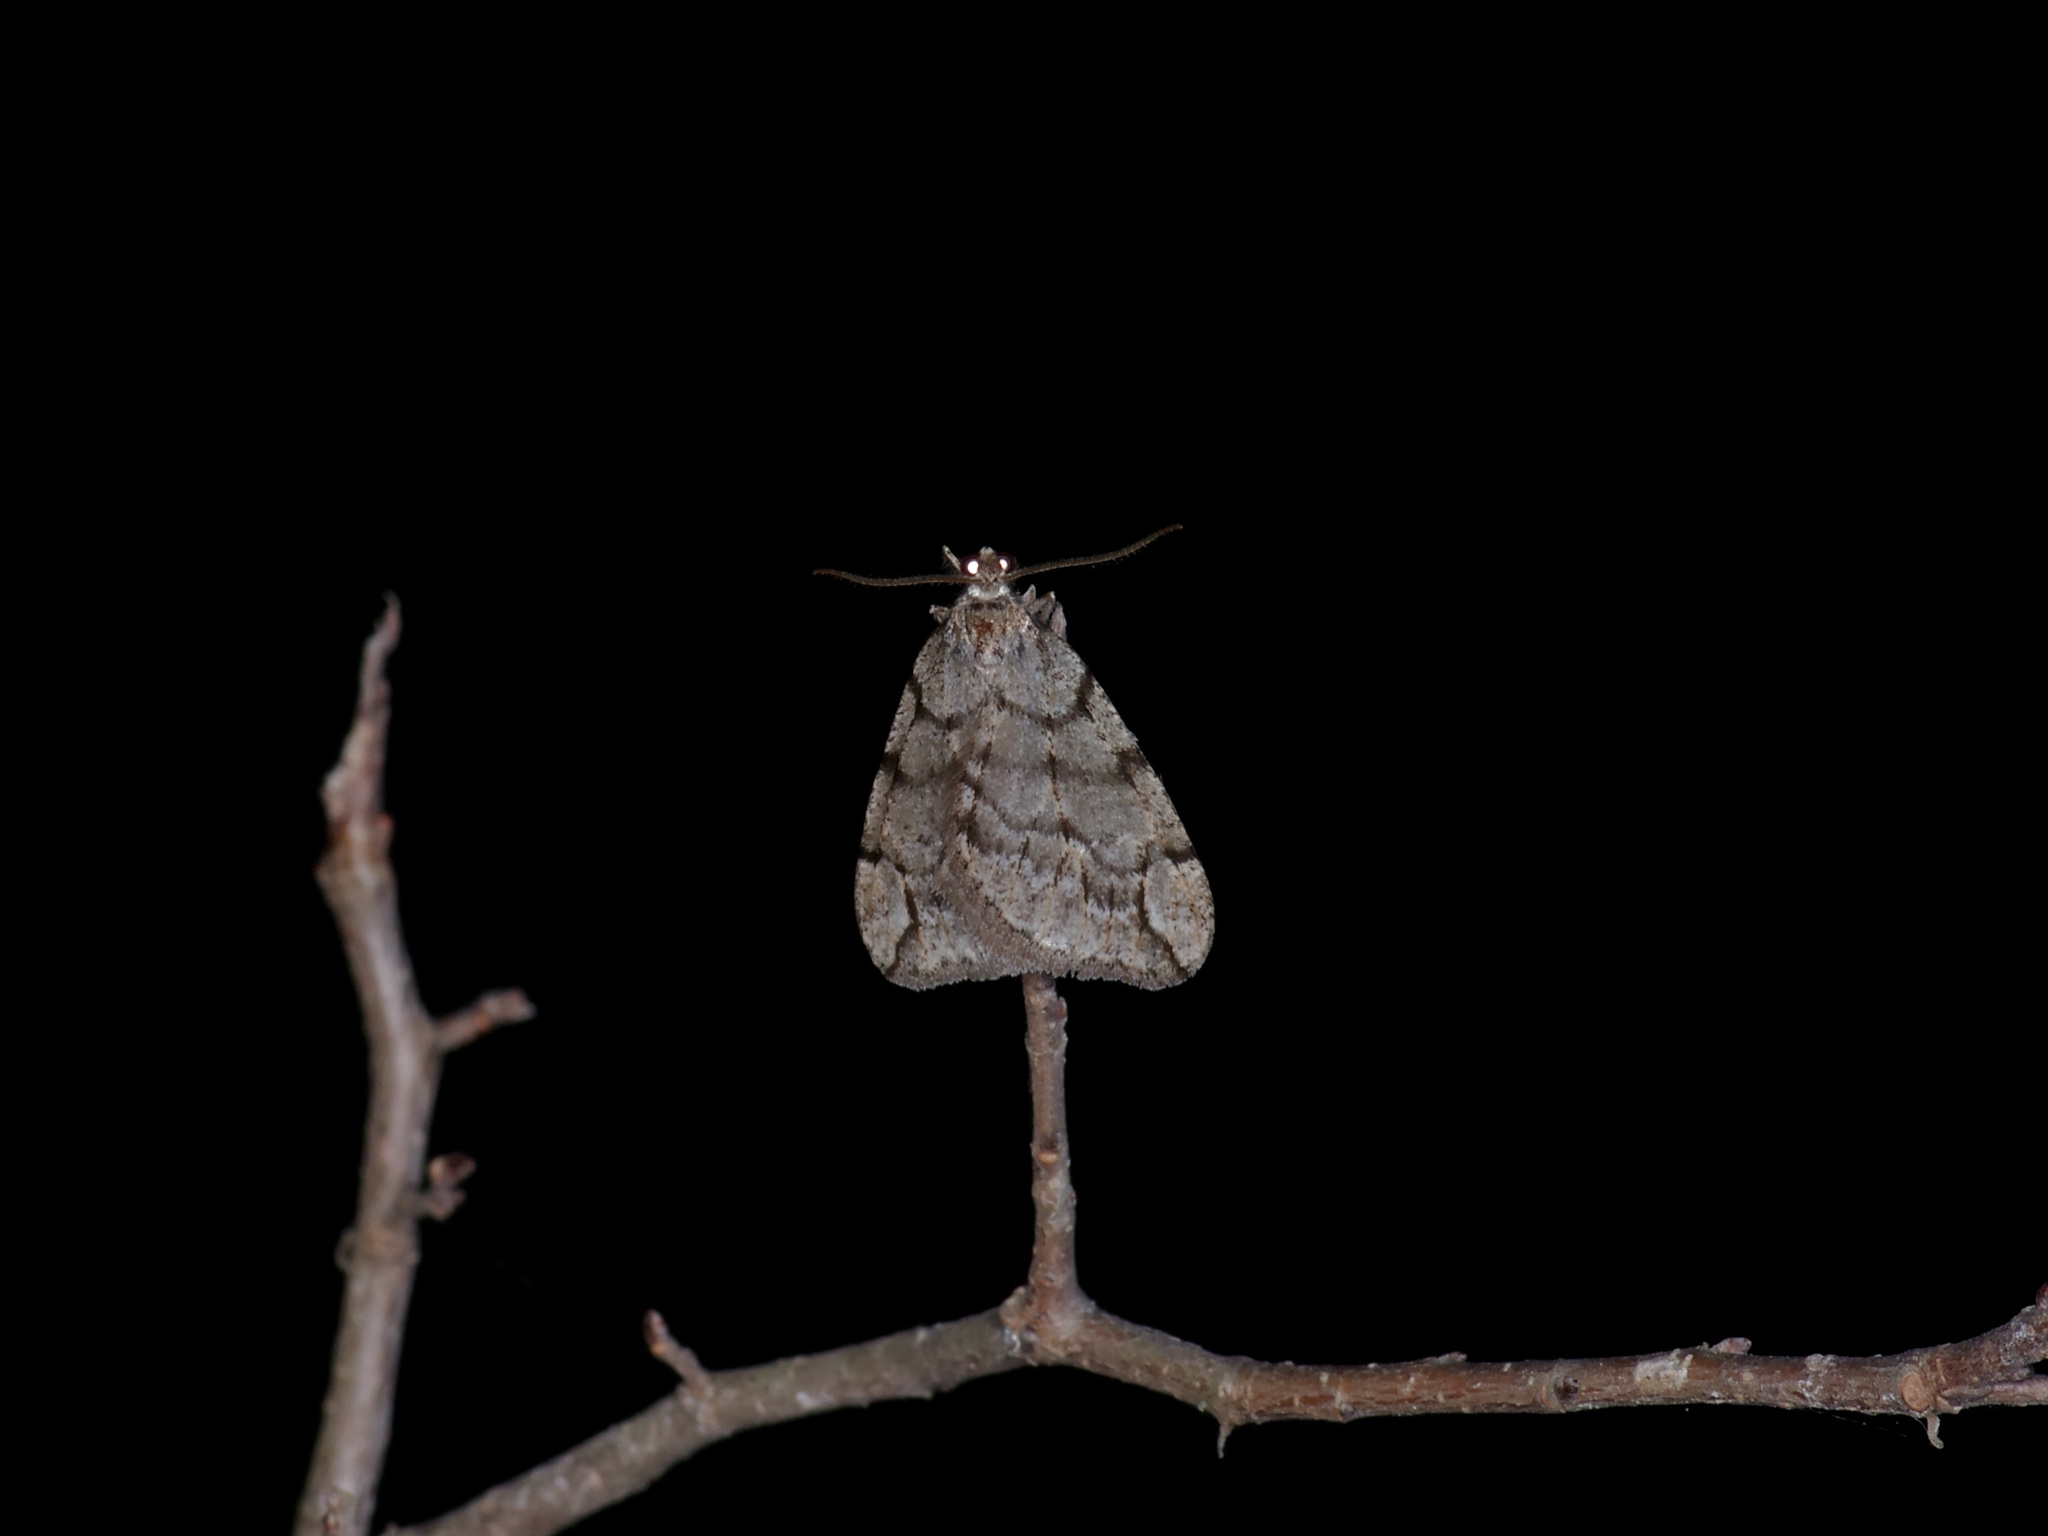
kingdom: Animalia
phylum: Arthropoda
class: Insecta
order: Lepidoptera
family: Geometridae
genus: Paleacrita
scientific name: Paleacrita vernata
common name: Spring cankerworm
